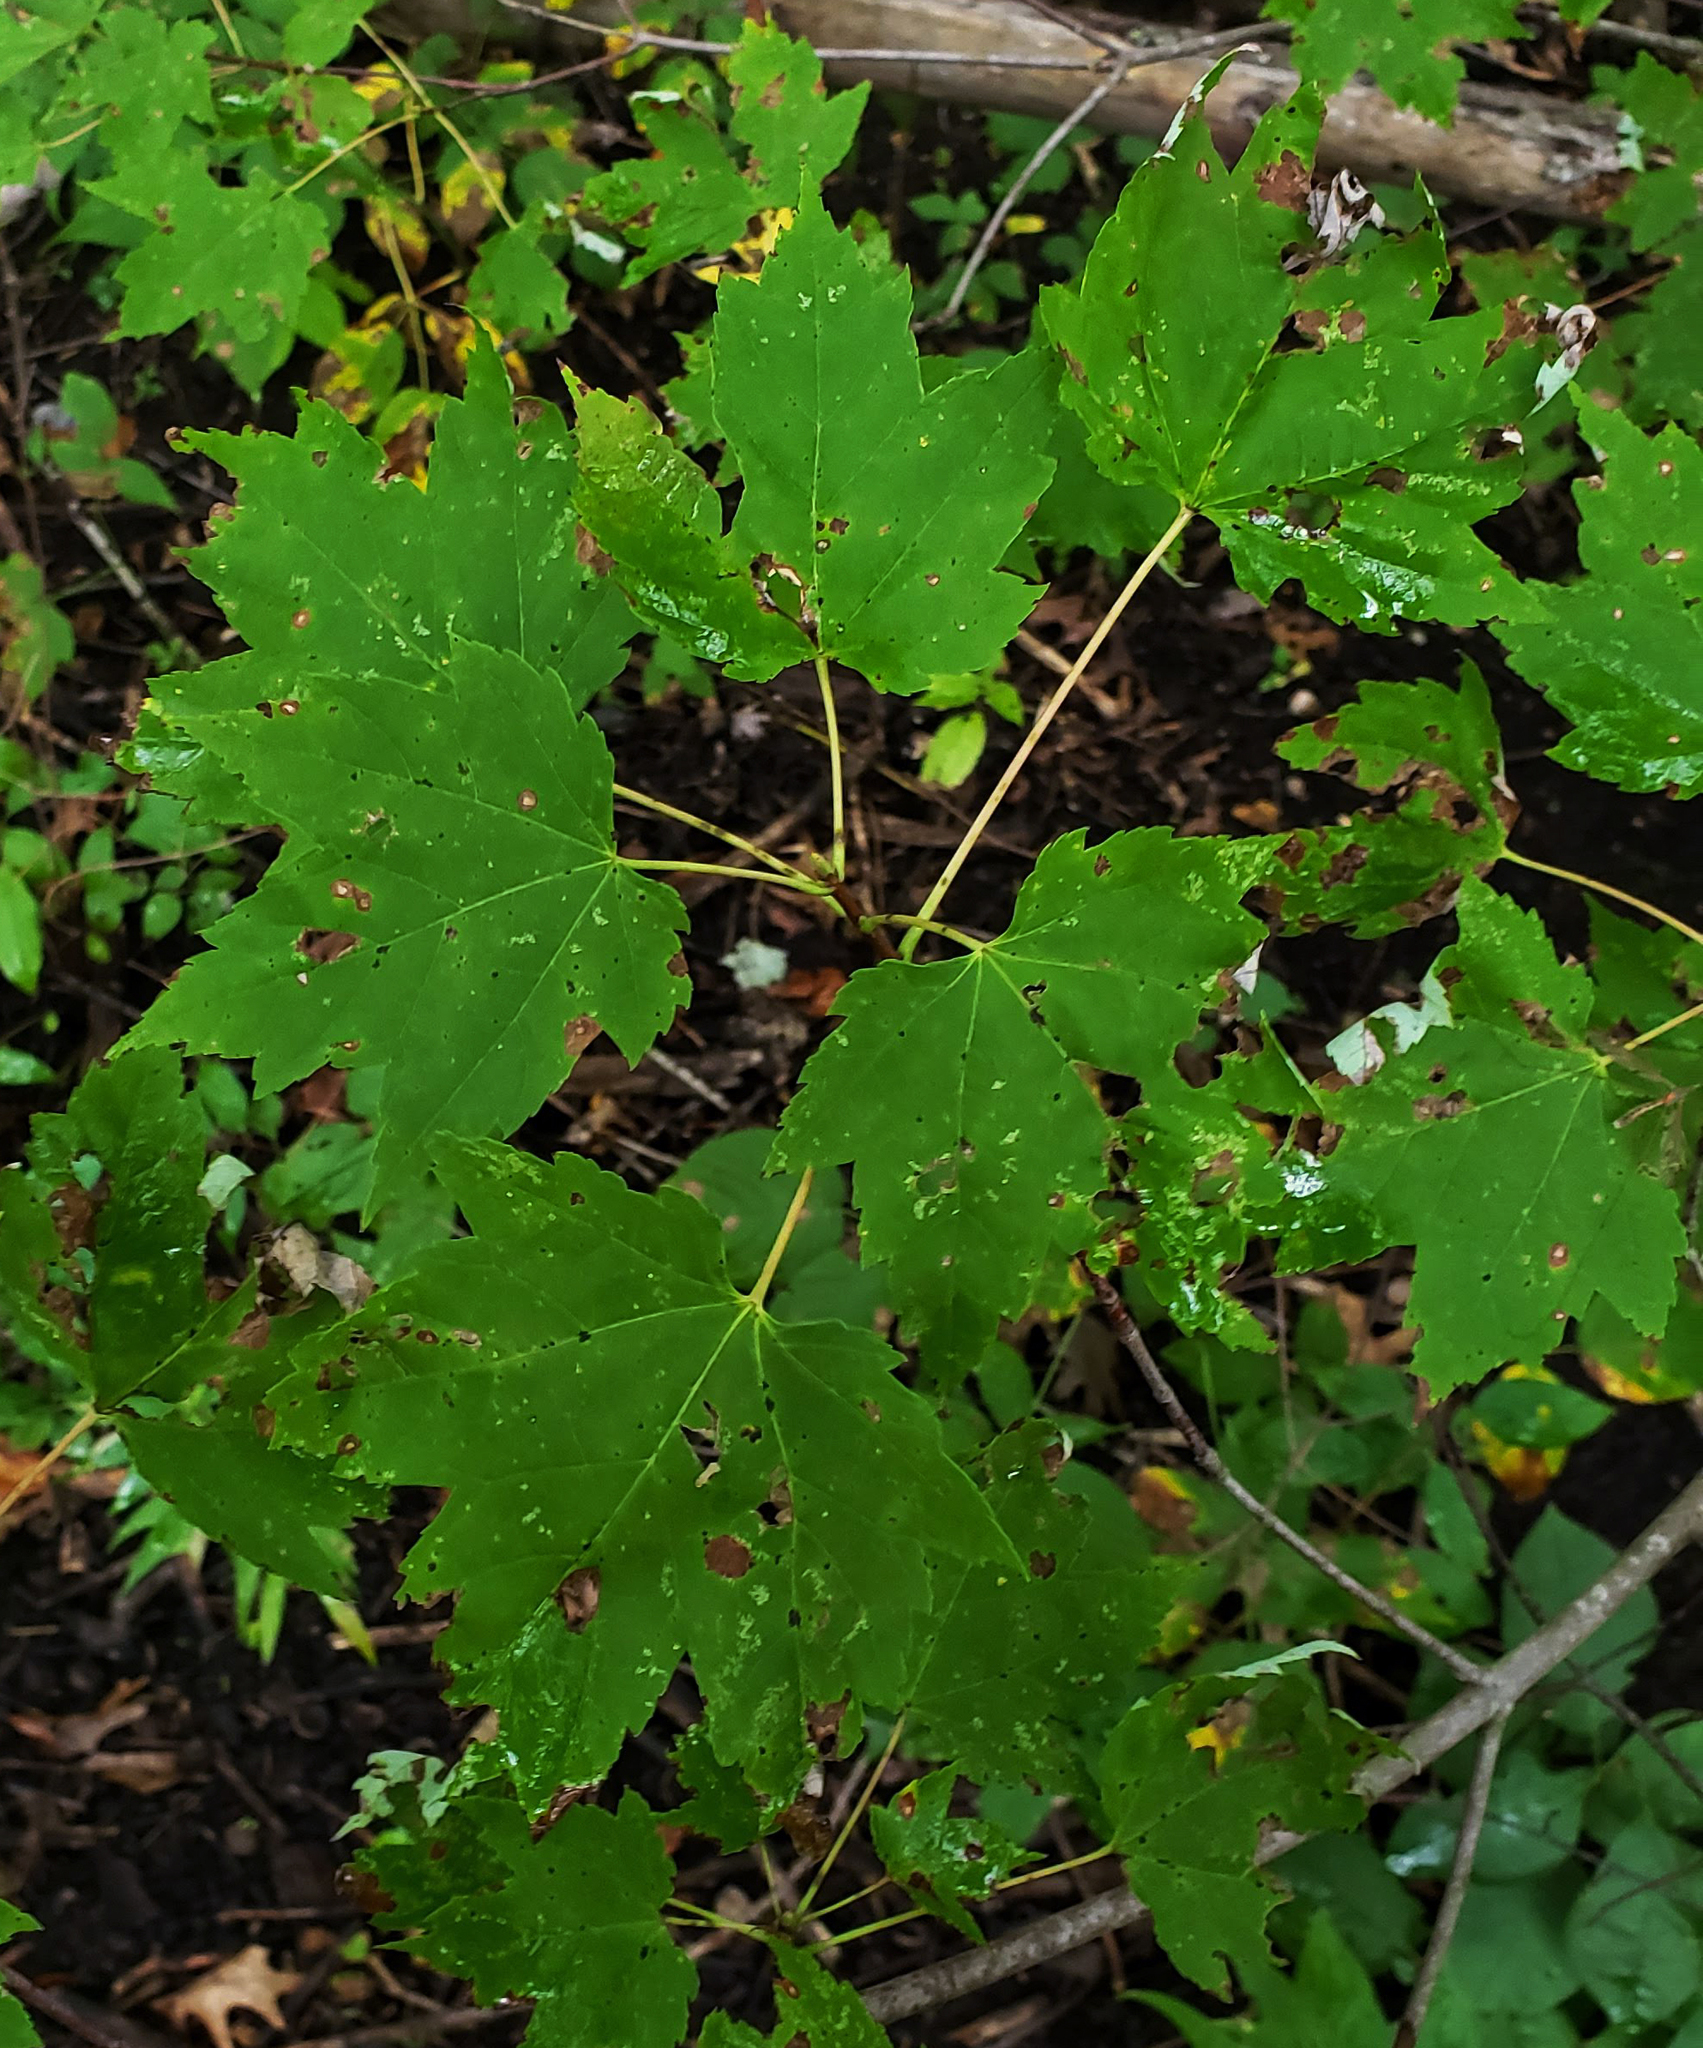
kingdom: Plantae
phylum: Tracheophyta
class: Magnoliopsida
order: Sapindales
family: Sapindaceae
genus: Acer
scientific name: Acer rubrum
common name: Red maple
